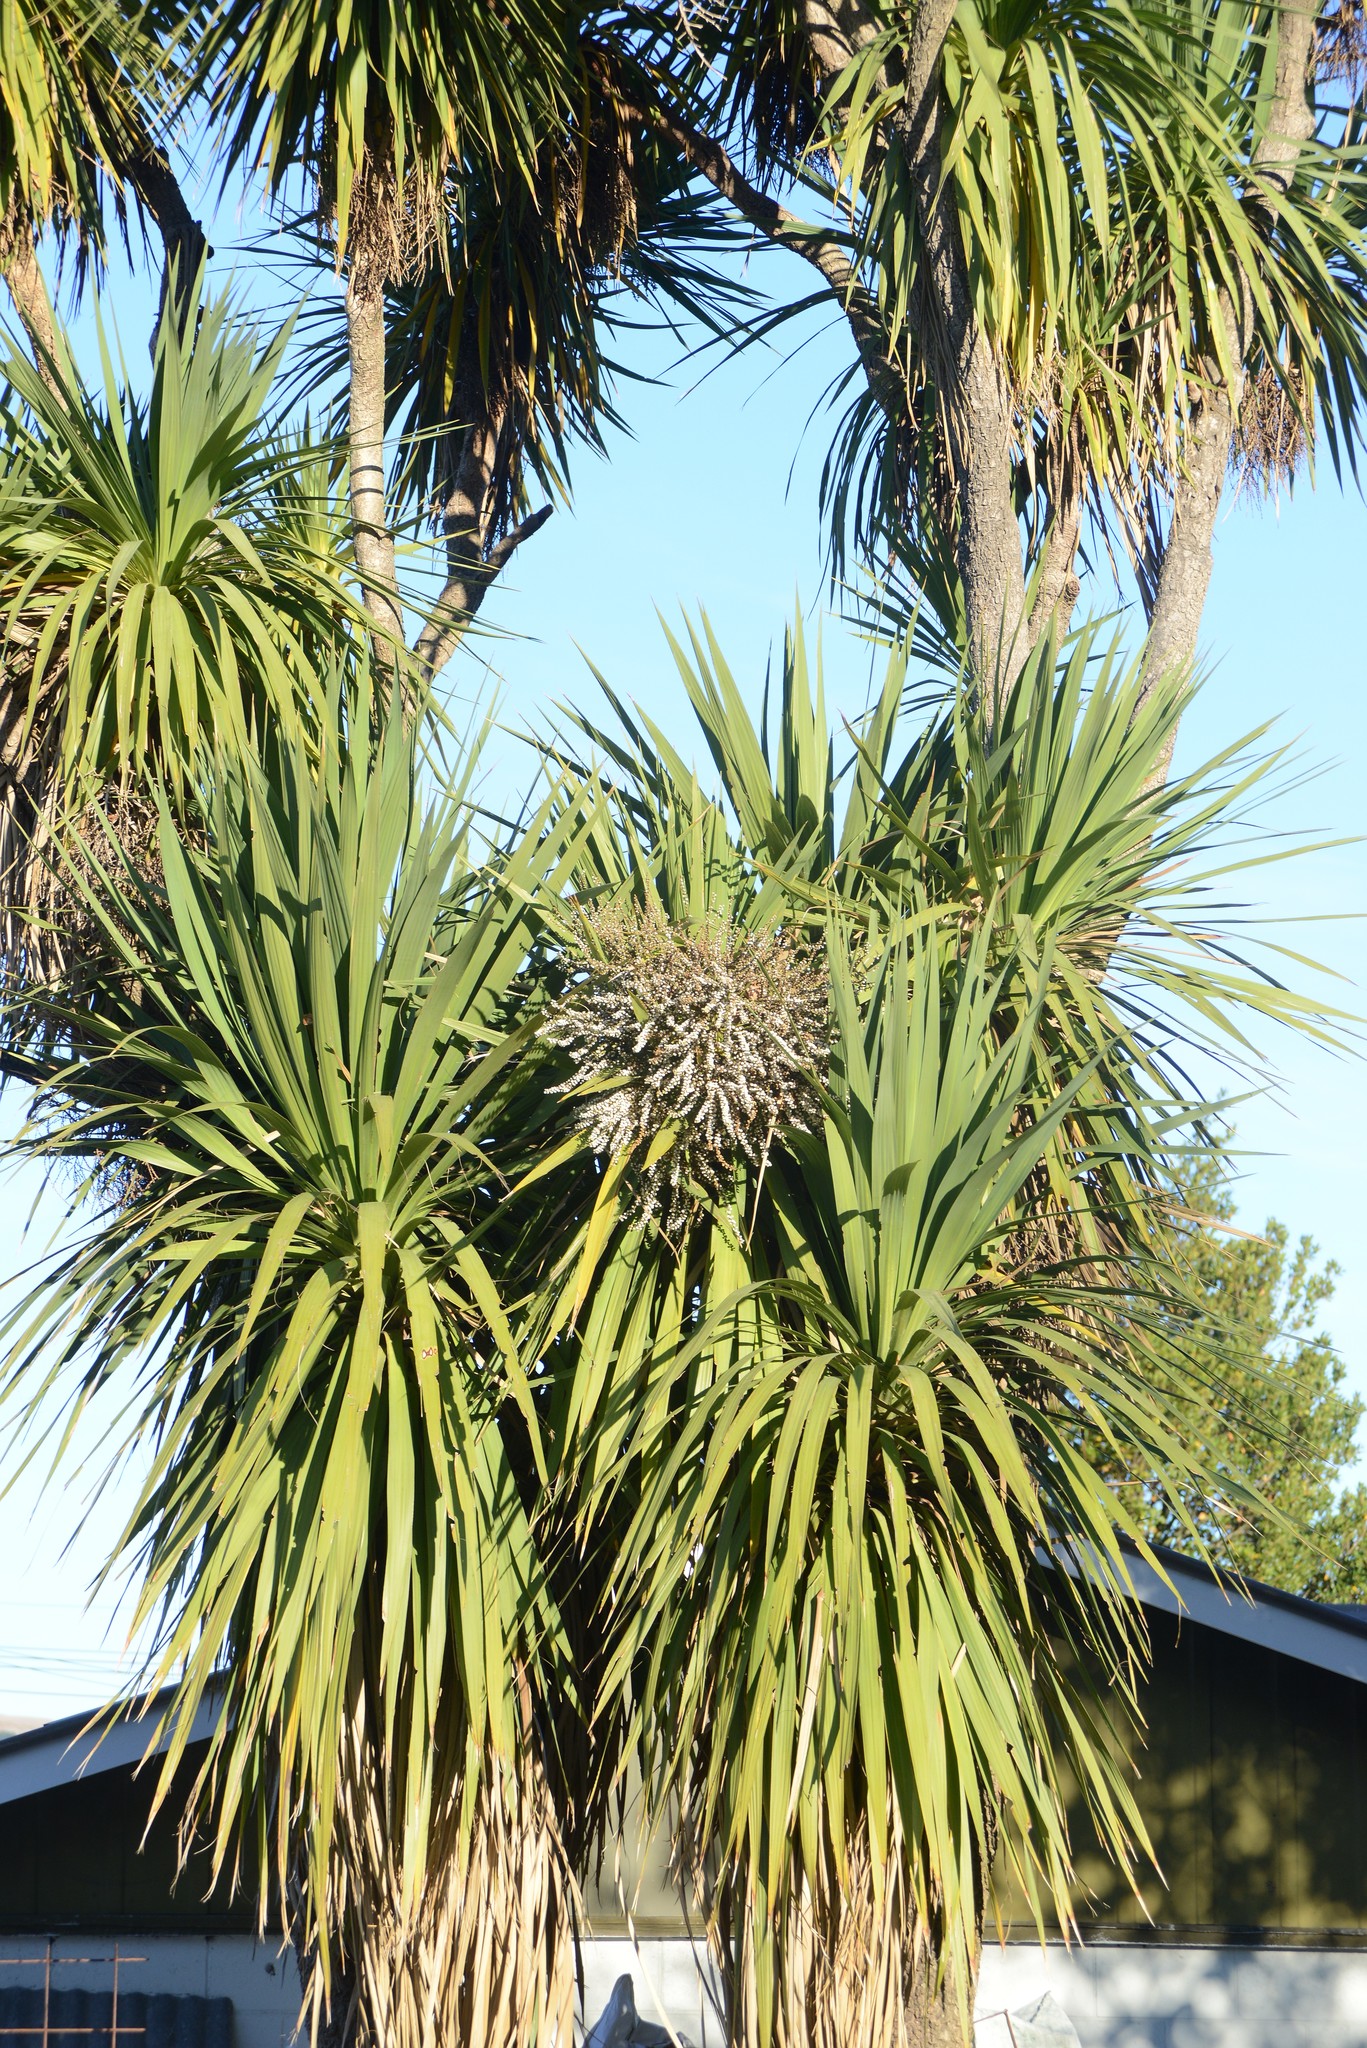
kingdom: Plantae
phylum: Tracheophyta
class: Liliopsida
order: Asparagales
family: Asparagaceae
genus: Cordyline
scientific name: Cordyline australis
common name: Cabbage-palm
